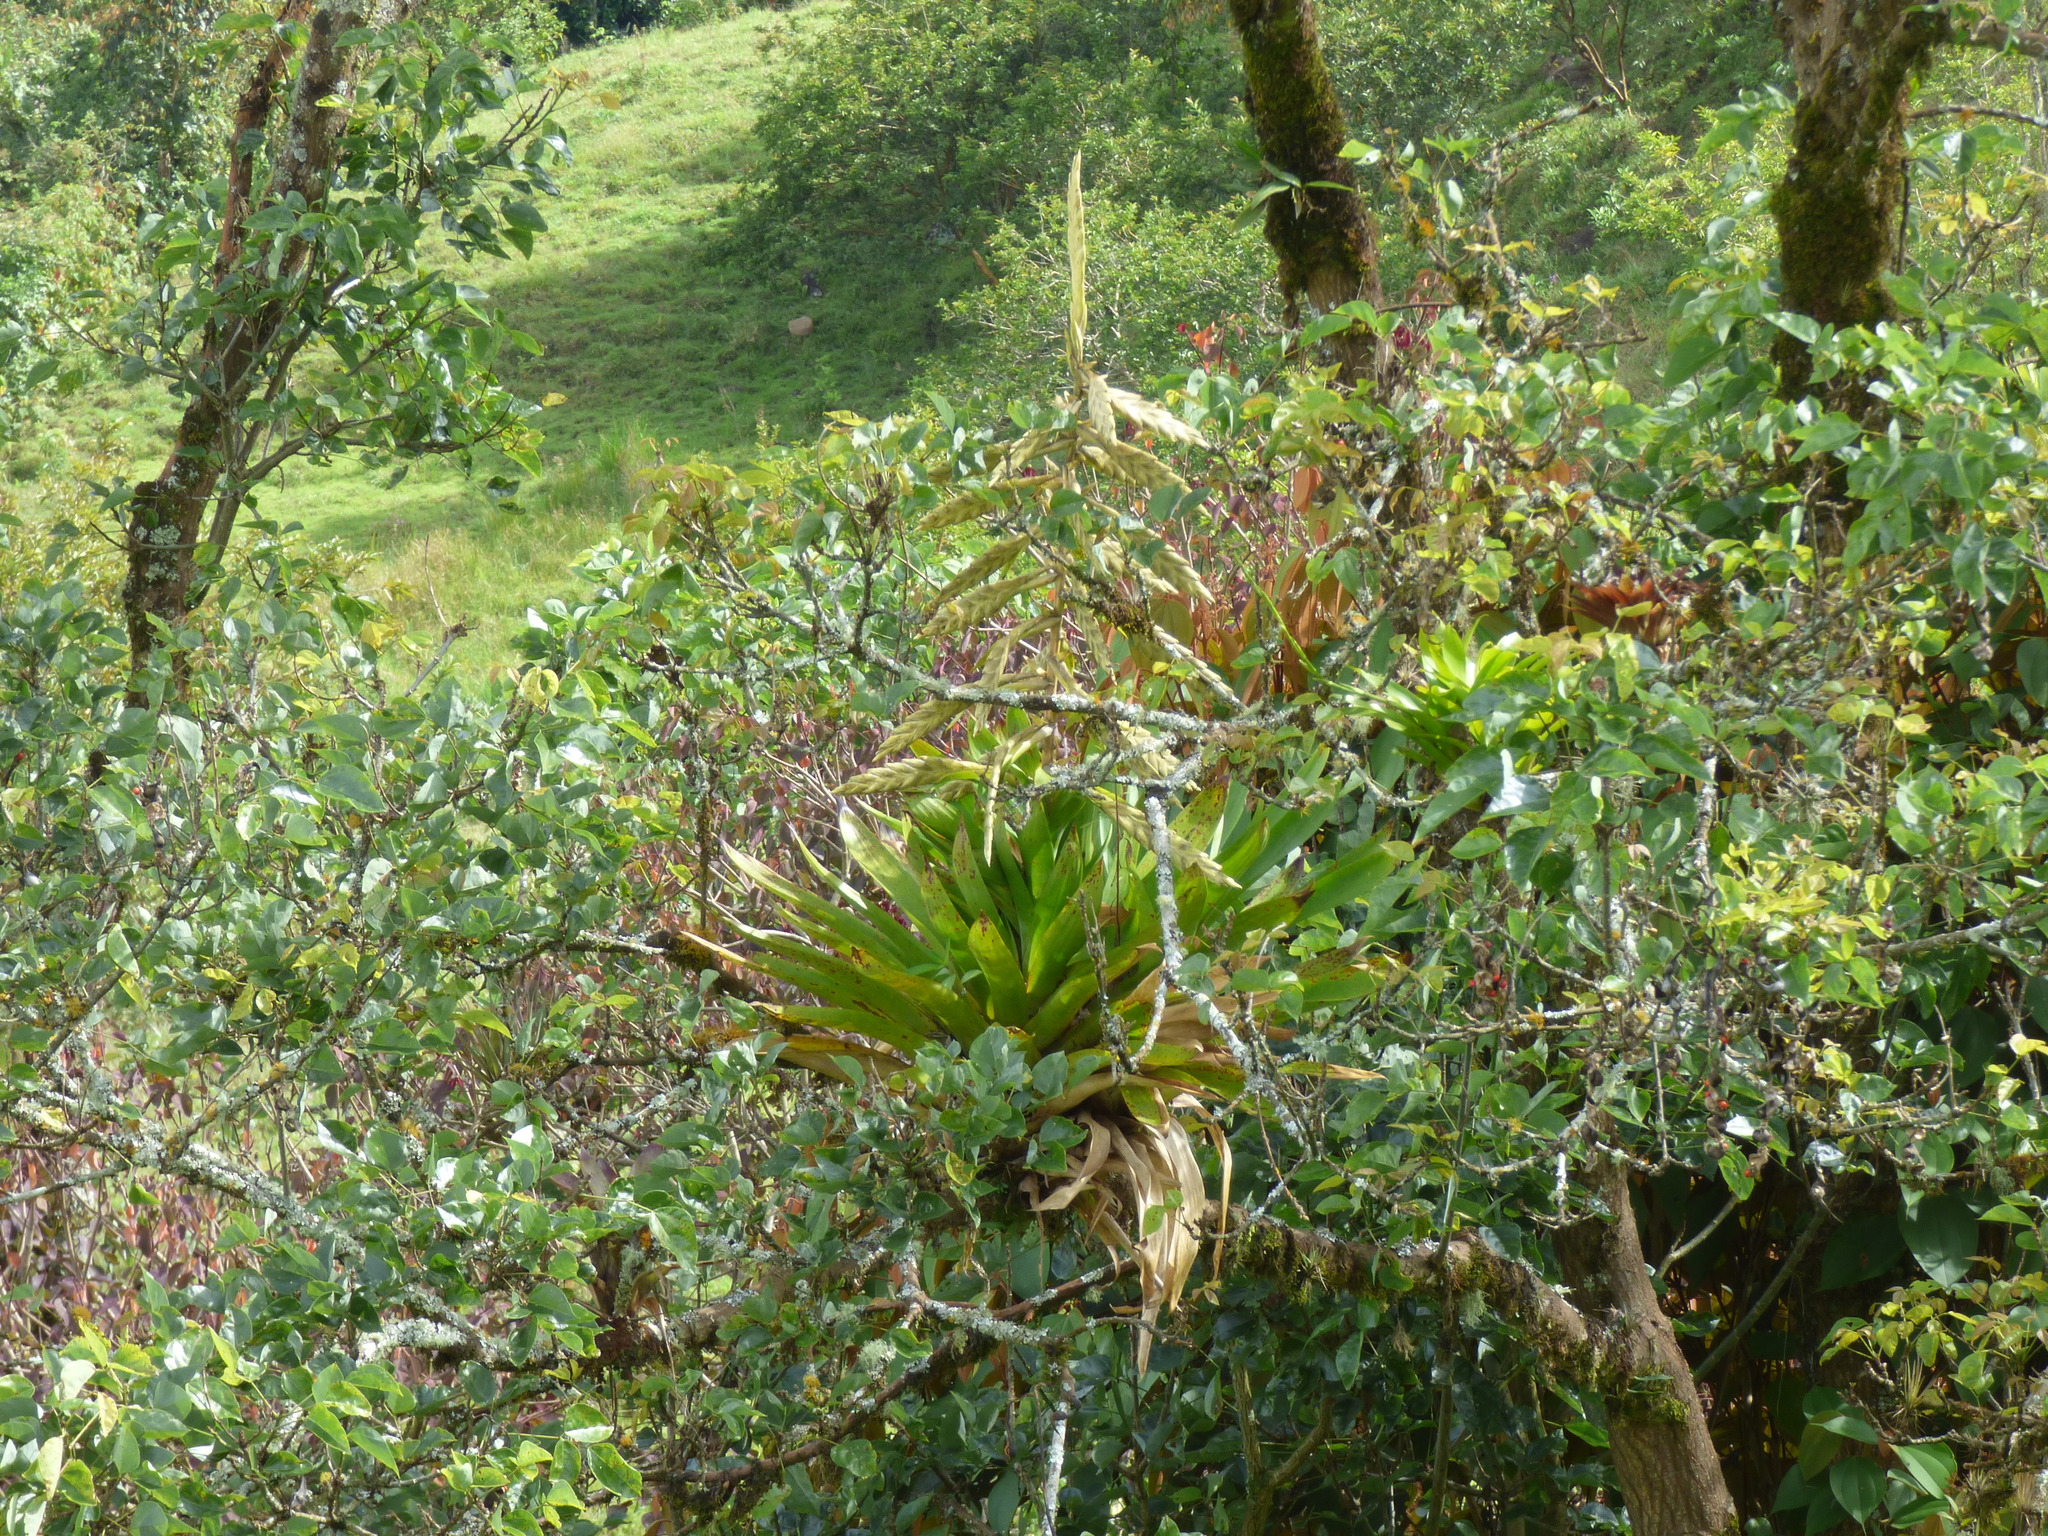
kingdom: Plantae
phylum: Tracheophyta
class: Liliopsida
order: Poales
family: Bromeliaceae
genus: Tillandsia
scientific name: Tillandsia fendleri
